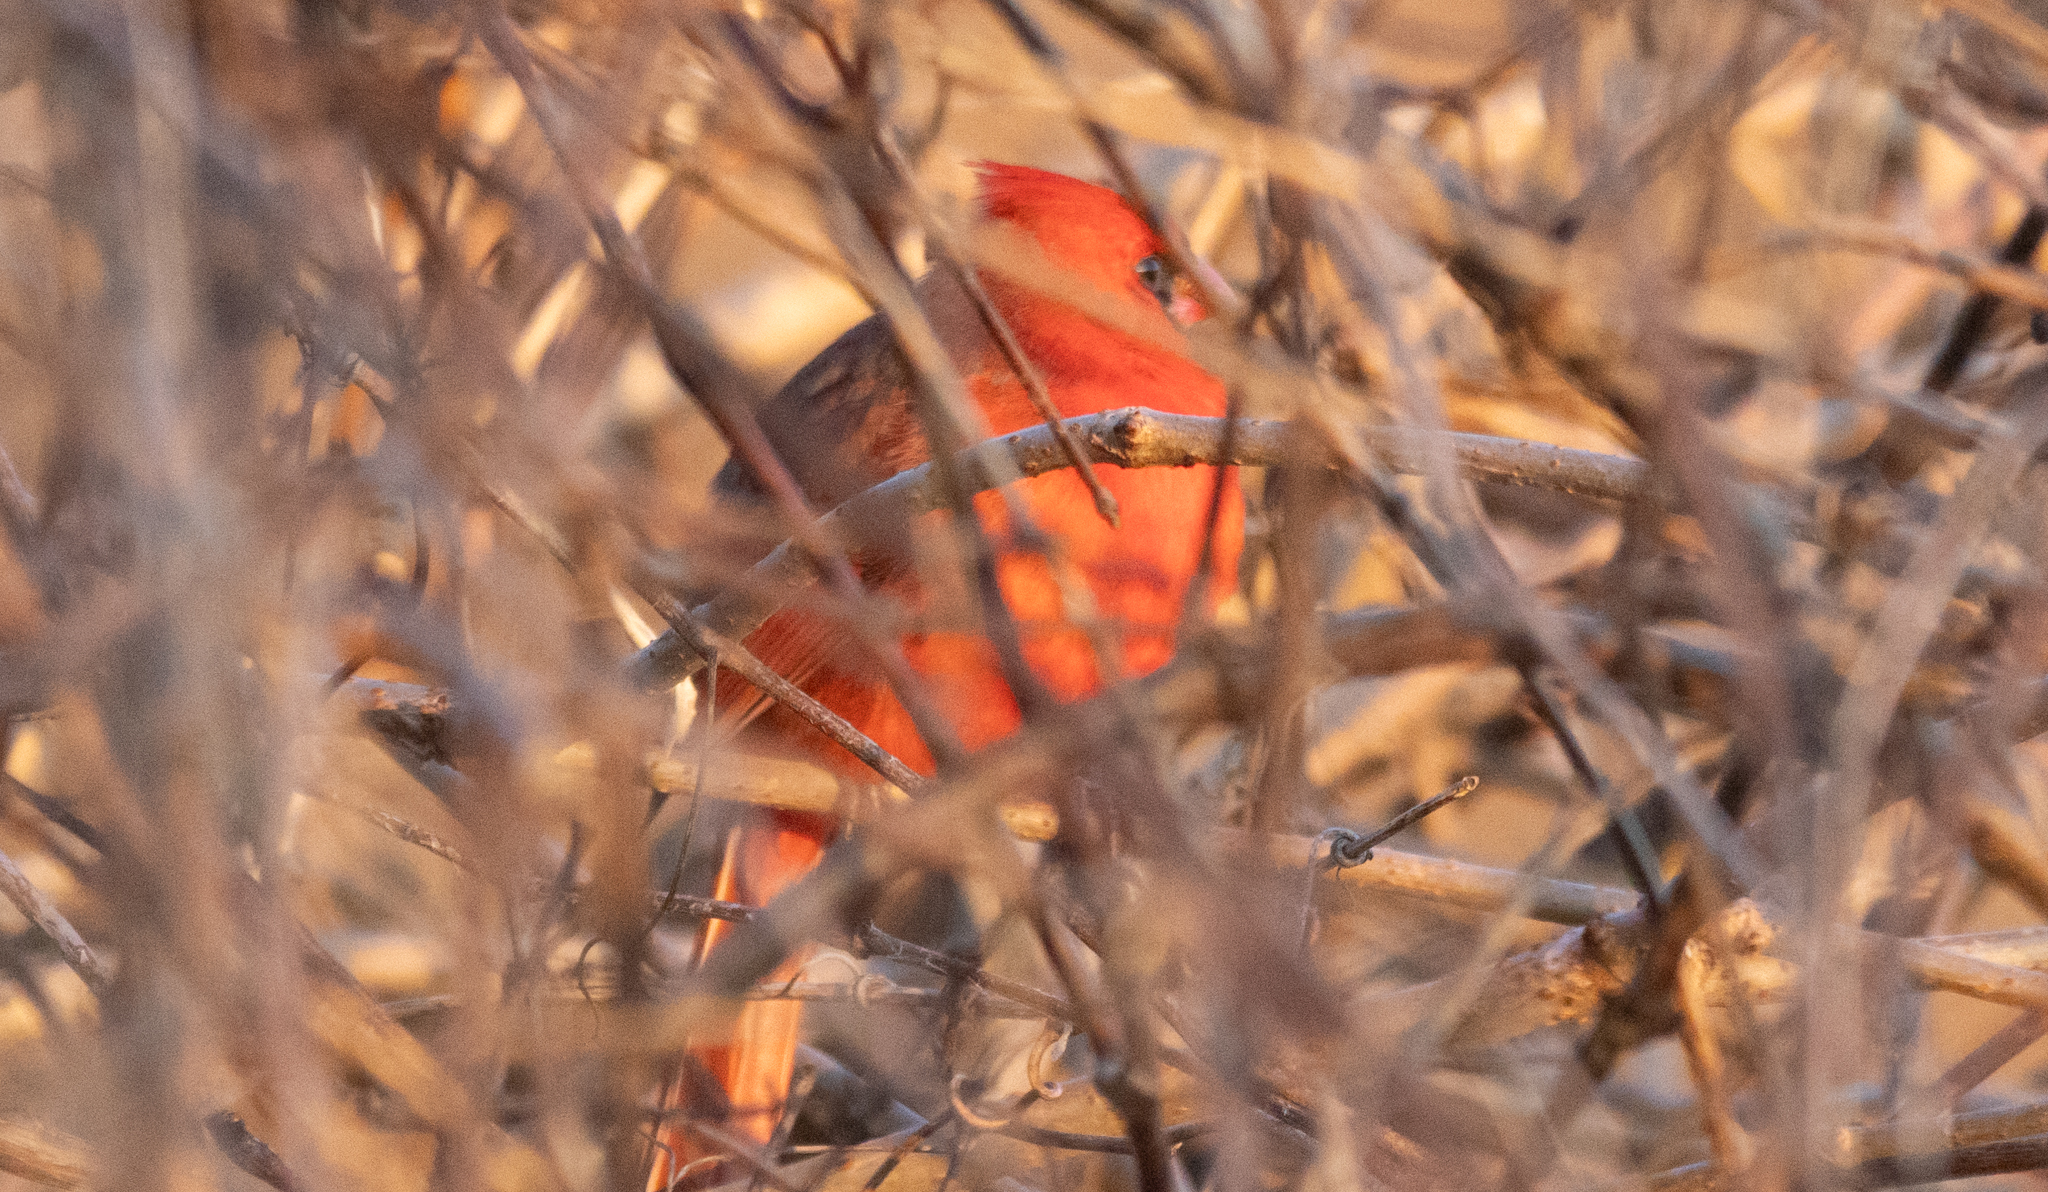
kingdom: Animalia
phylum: Chordata
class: Aves
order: Passeriformes
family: Cardinalidae
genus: Cardinalis
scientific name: Cardinalis cardinalis
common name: Northern cardinal
